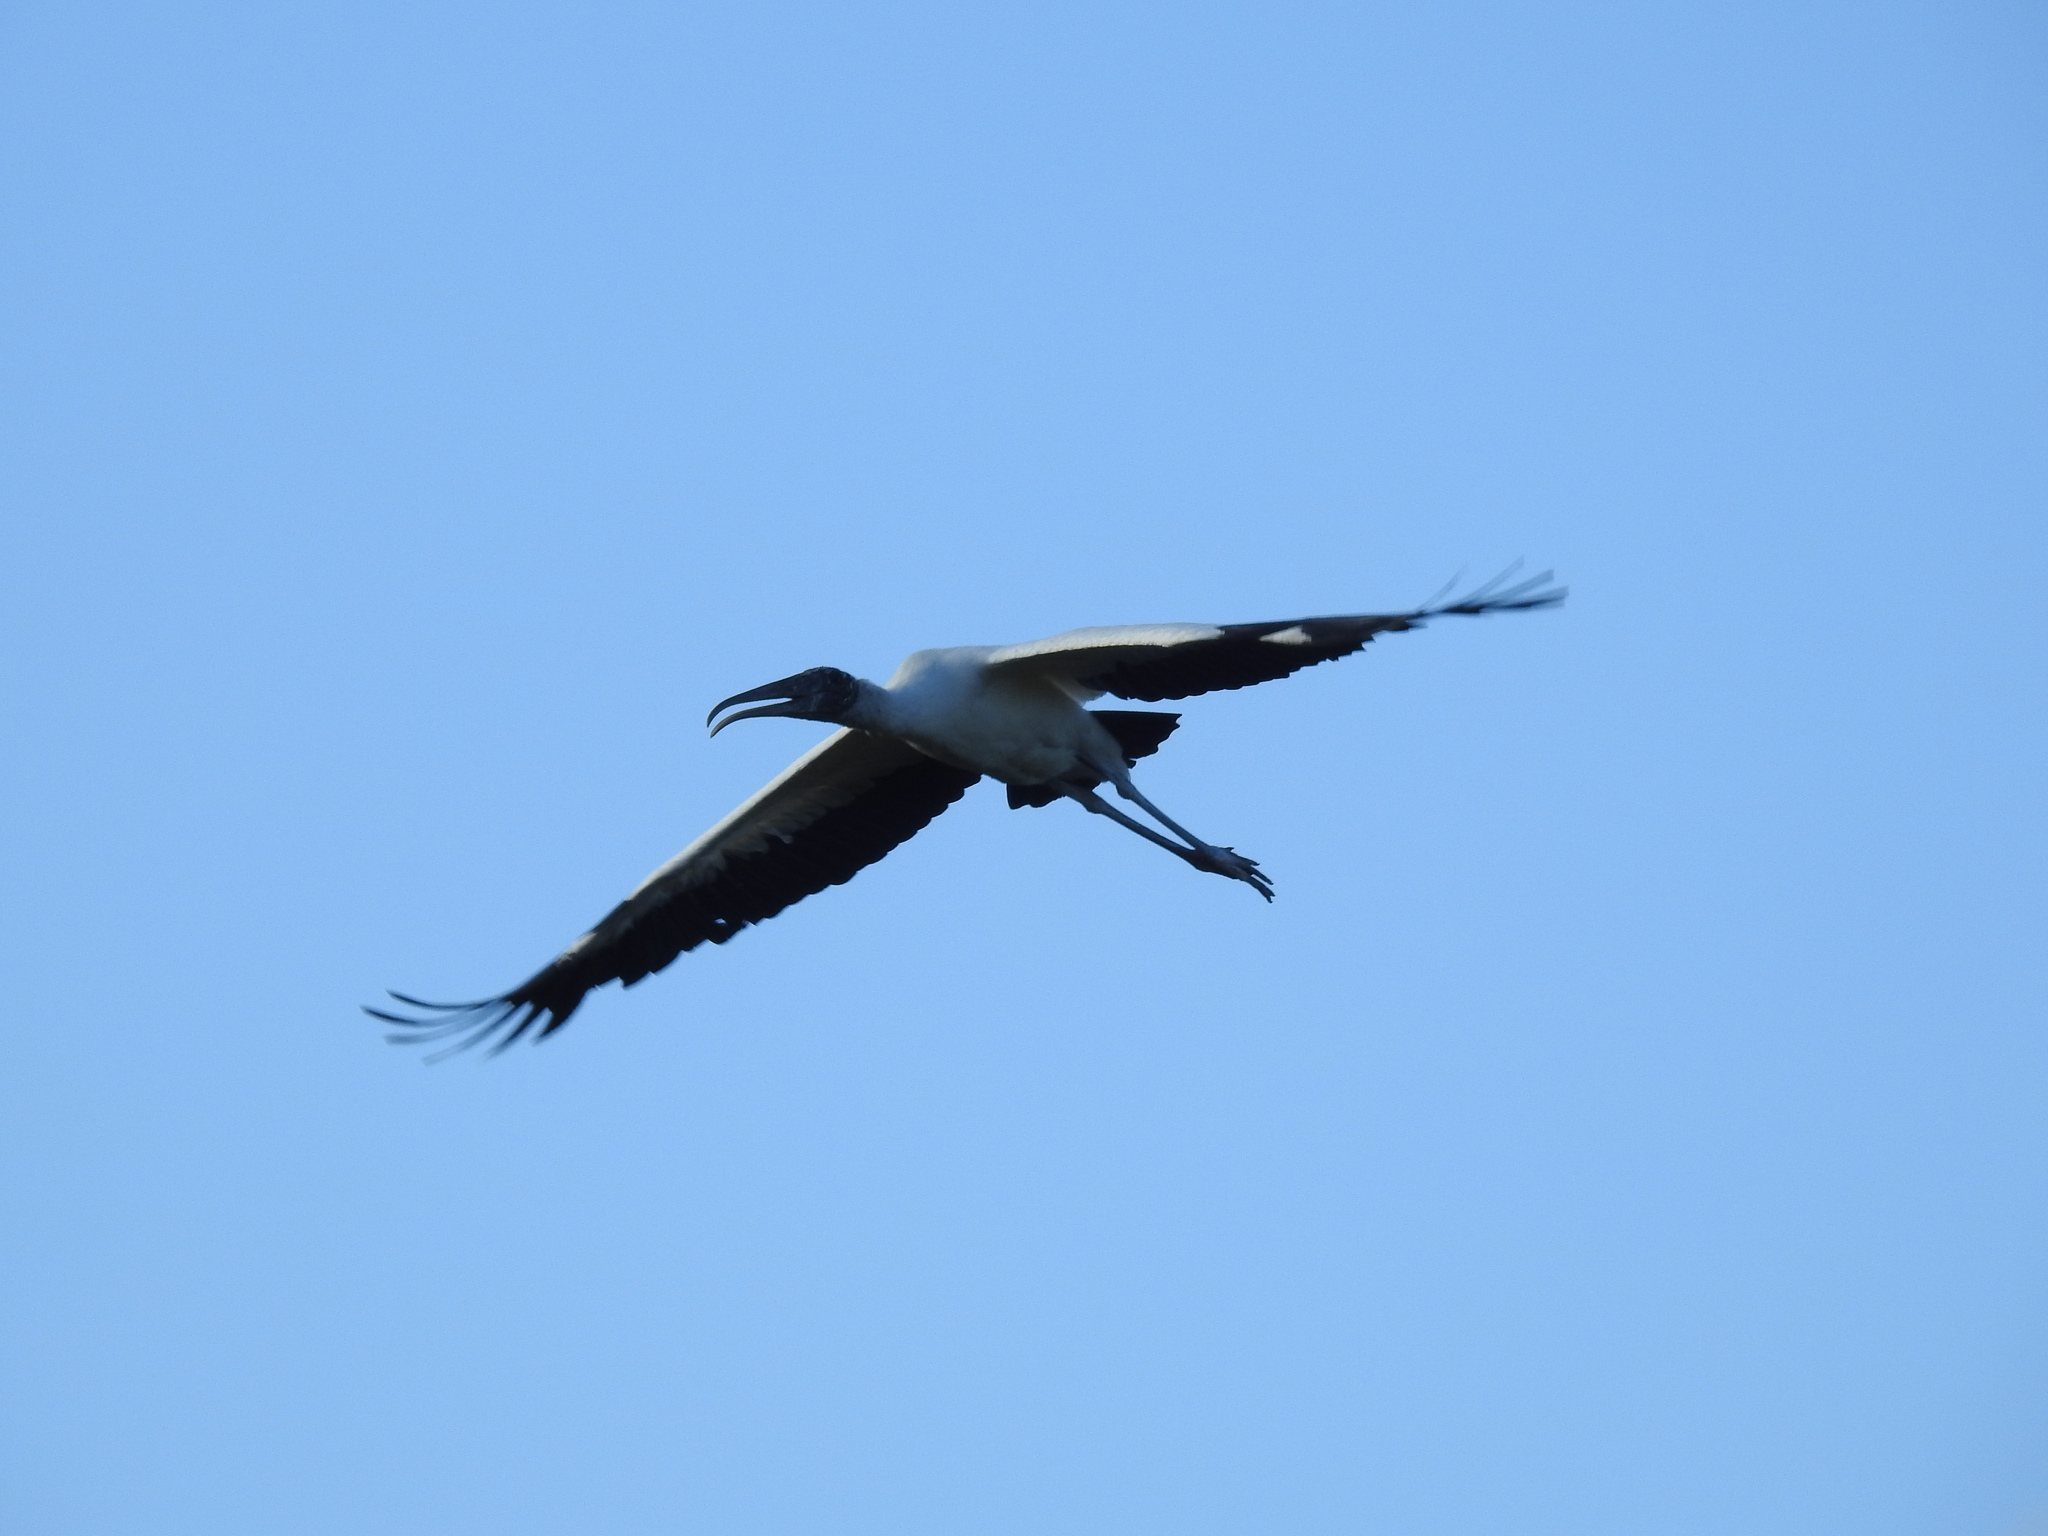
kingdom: Animalia
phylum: Chordata
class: Aves
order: Ciconiiformes
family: Ciconiidae
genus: Mycteria
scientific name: Mycteria americana
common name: Wood stork
